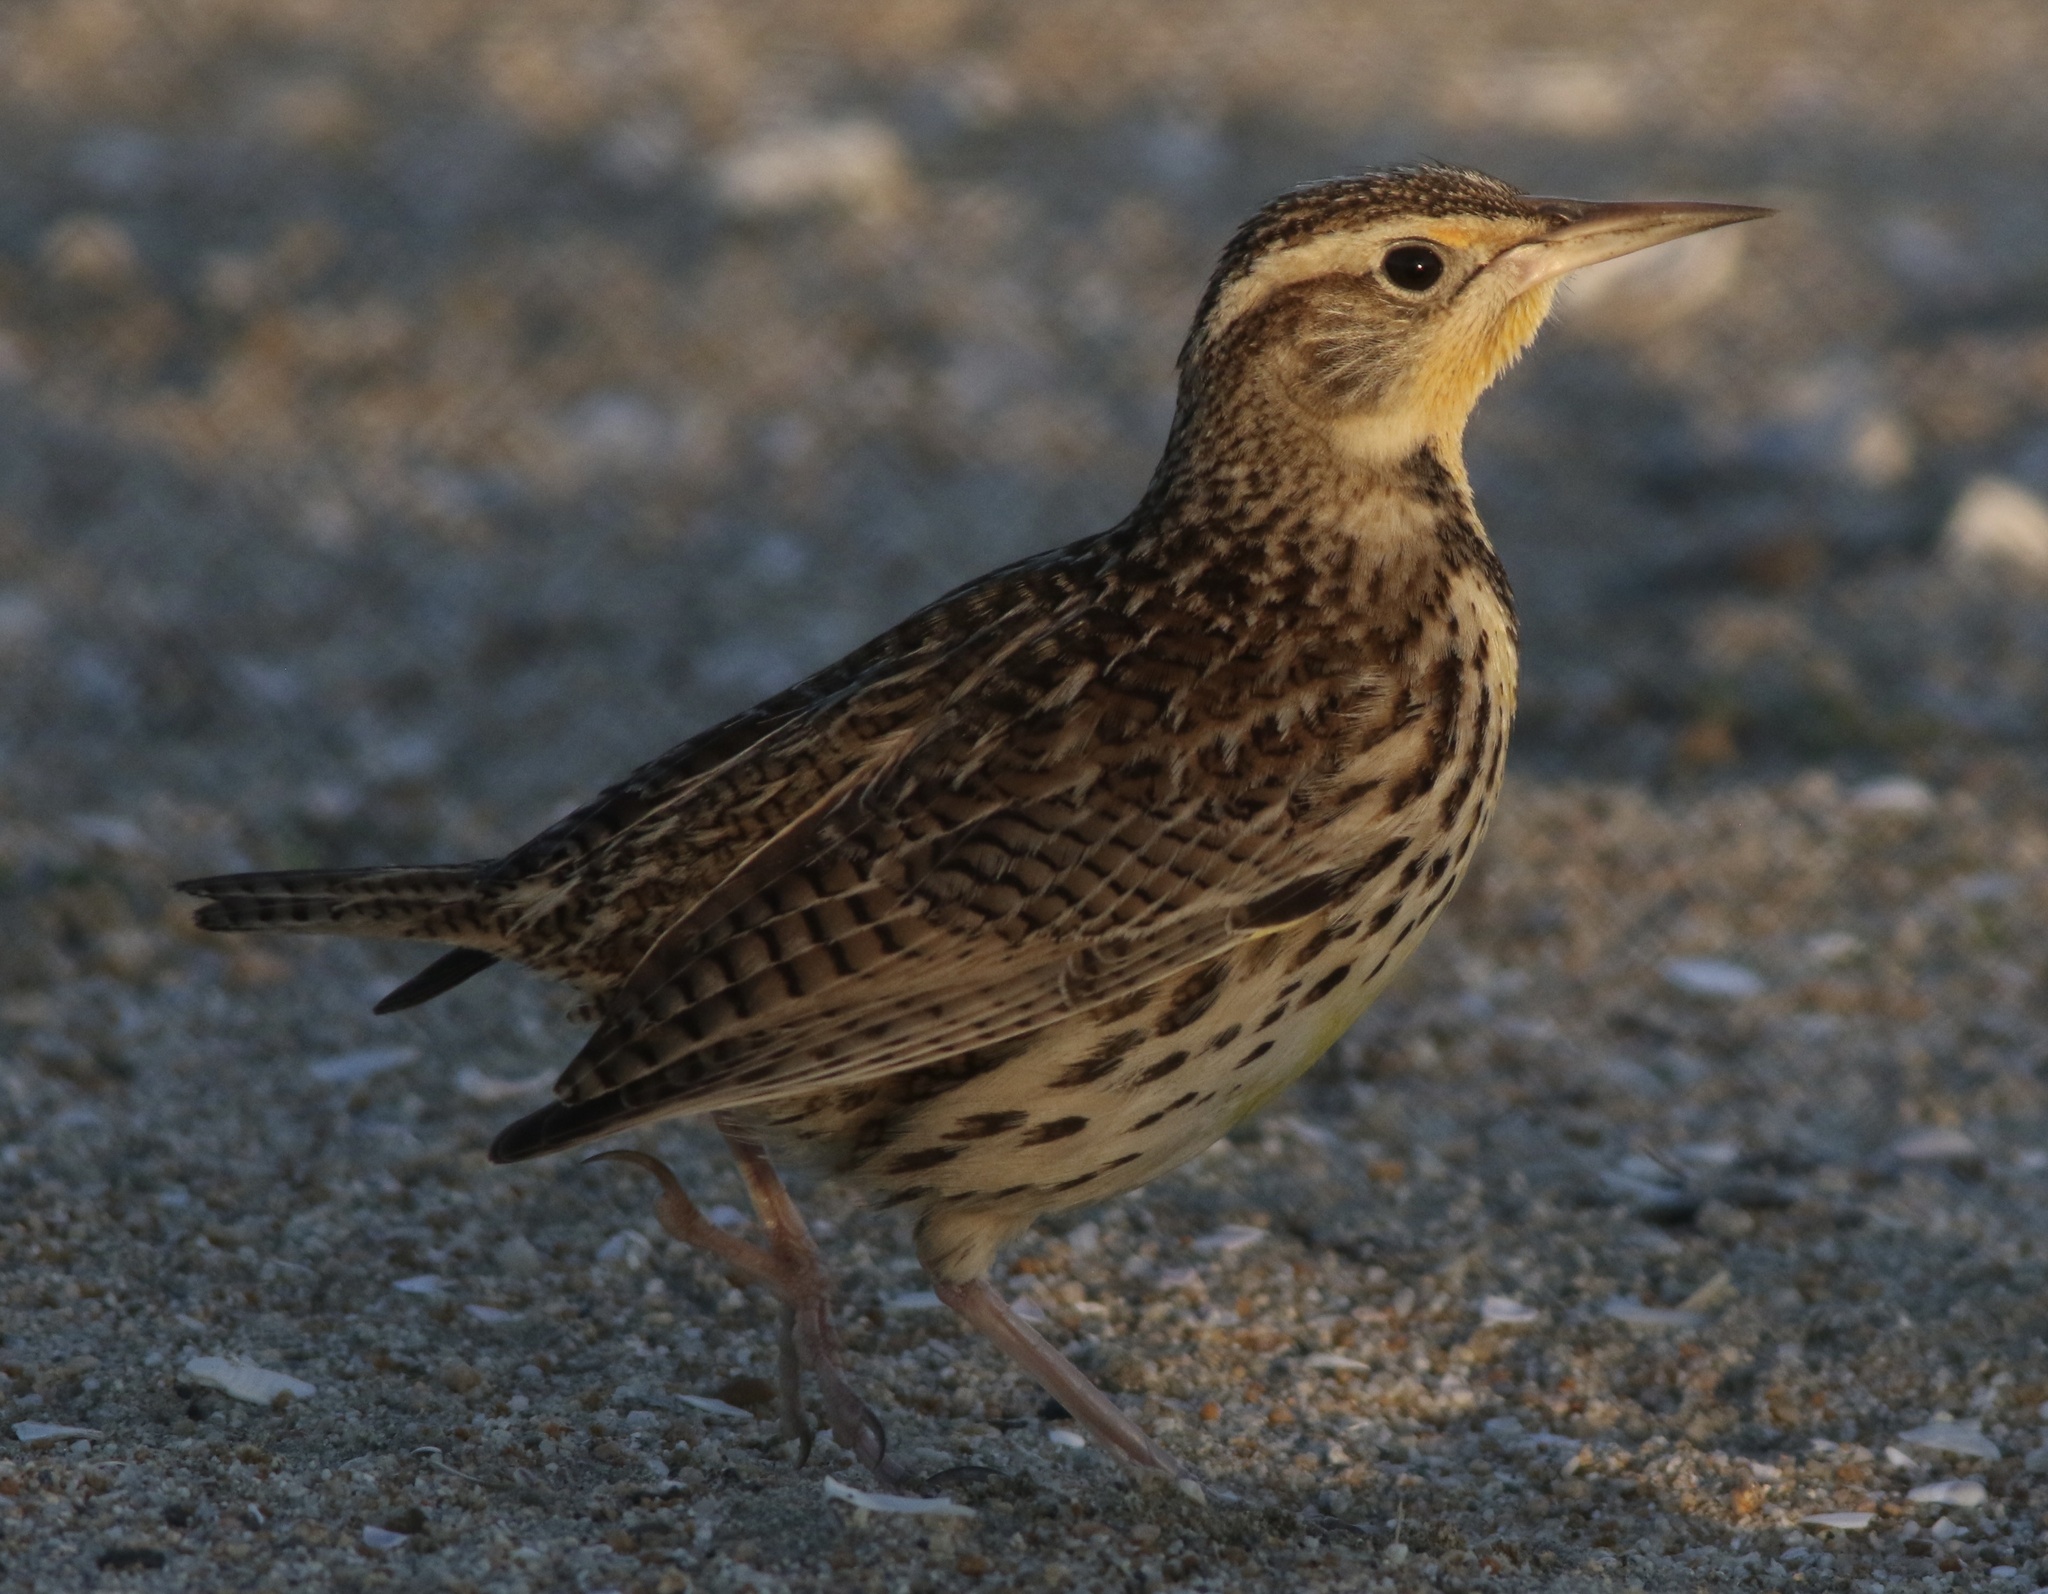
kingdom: Animalia
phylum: Chordata
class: Aves
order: Passeriformes
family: Icteridae
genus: Sturnella
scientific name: Sturnella neglecta
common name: Western meadowlark
